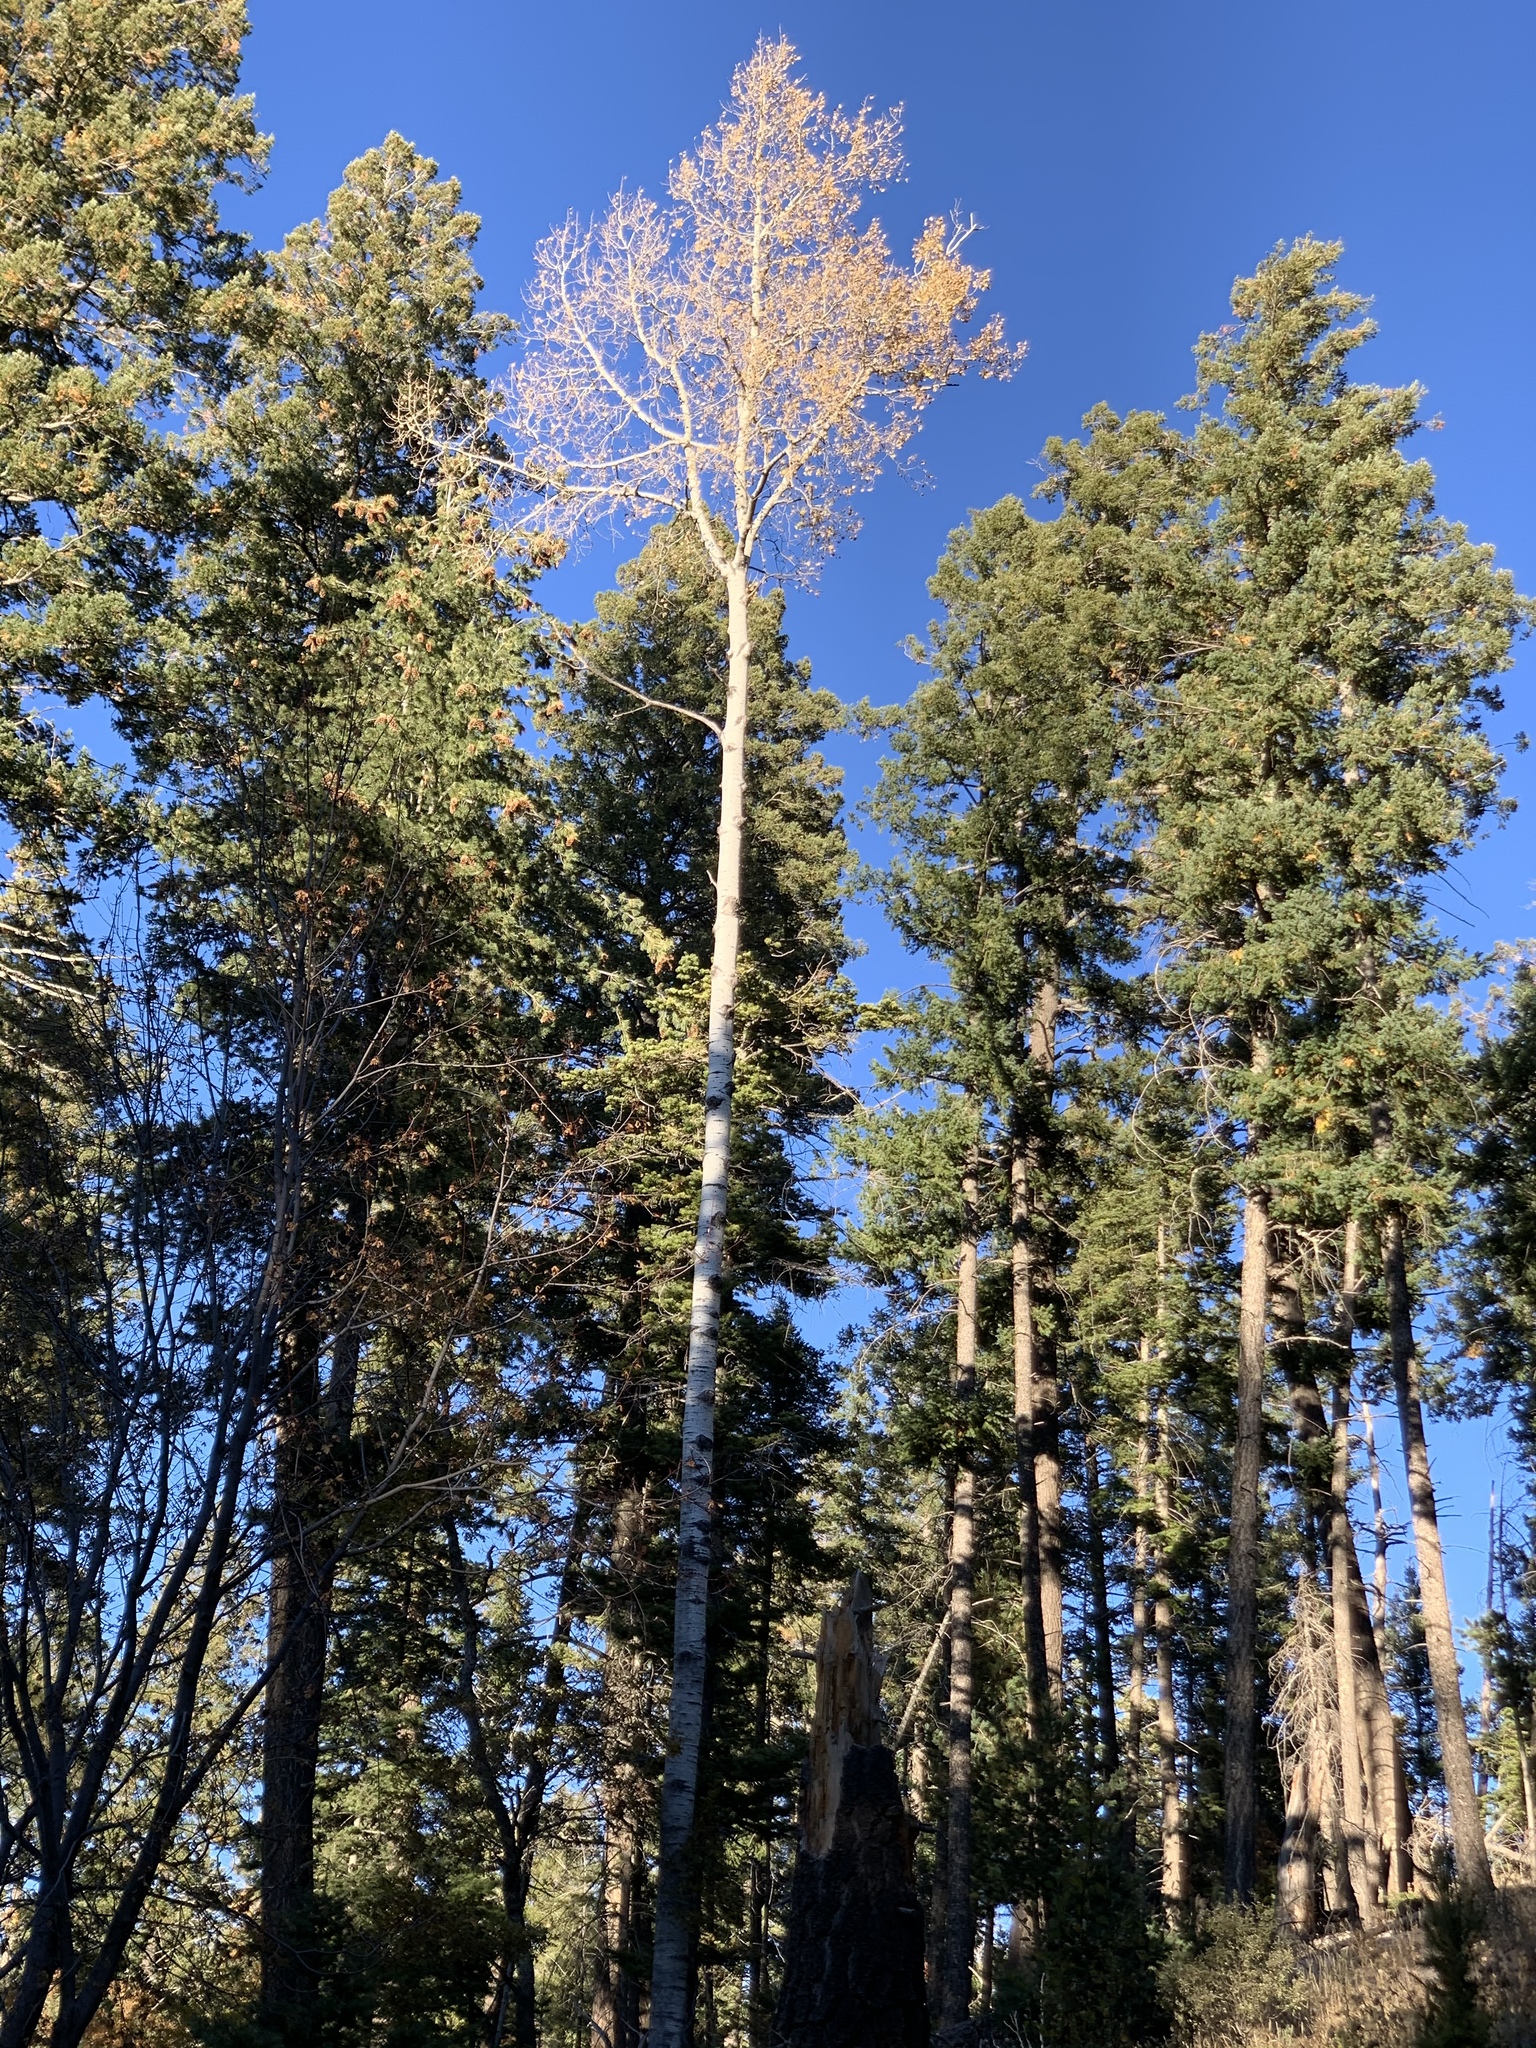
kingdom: Plantae
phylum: Tracheophyta
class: Magnoliopsida
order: Malpighiales
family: Salicaceae
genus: Populus
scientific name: Populus tremuloides
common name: Quaking aspen
